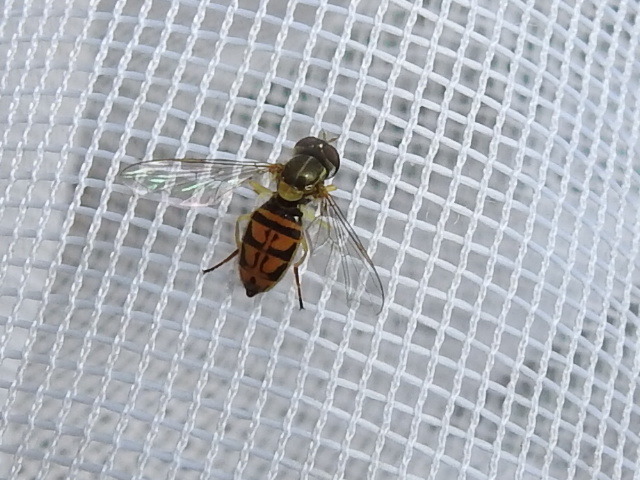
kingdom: Animalia
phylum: Arthropoda
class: Insecta
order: Diptera
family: Syrphidae
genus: Toxomerus
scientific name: Toxomerus marginatus
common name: Syrphid fly
